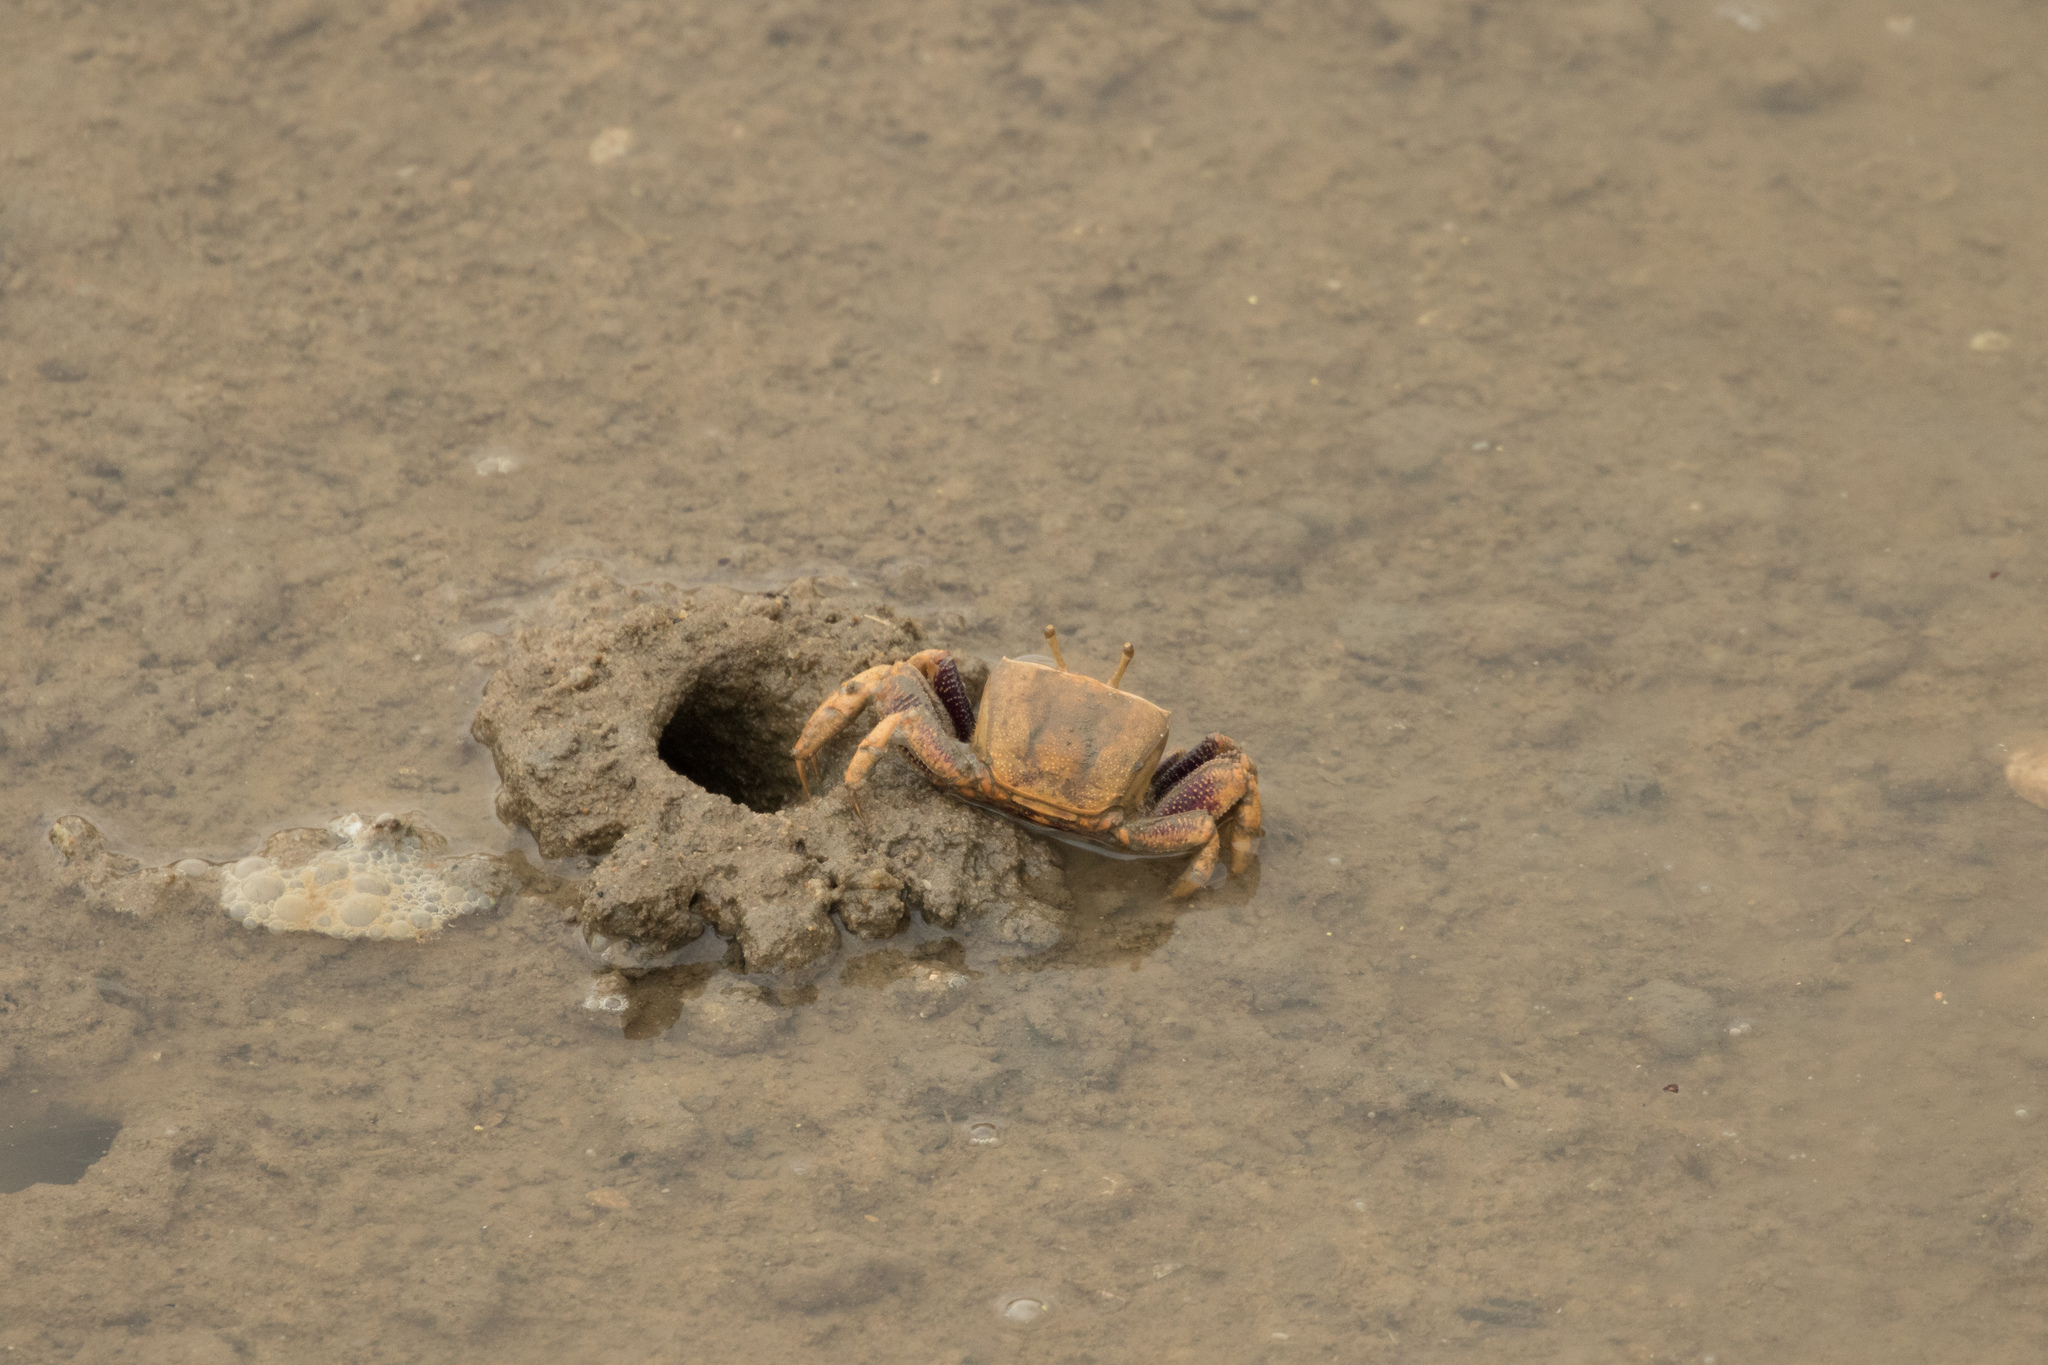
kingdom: Animalia
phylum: Arthropoda
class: Malacostraca
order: Decapoda
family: Ocypodidae
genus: Afruca
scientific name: Afruca tangeri
